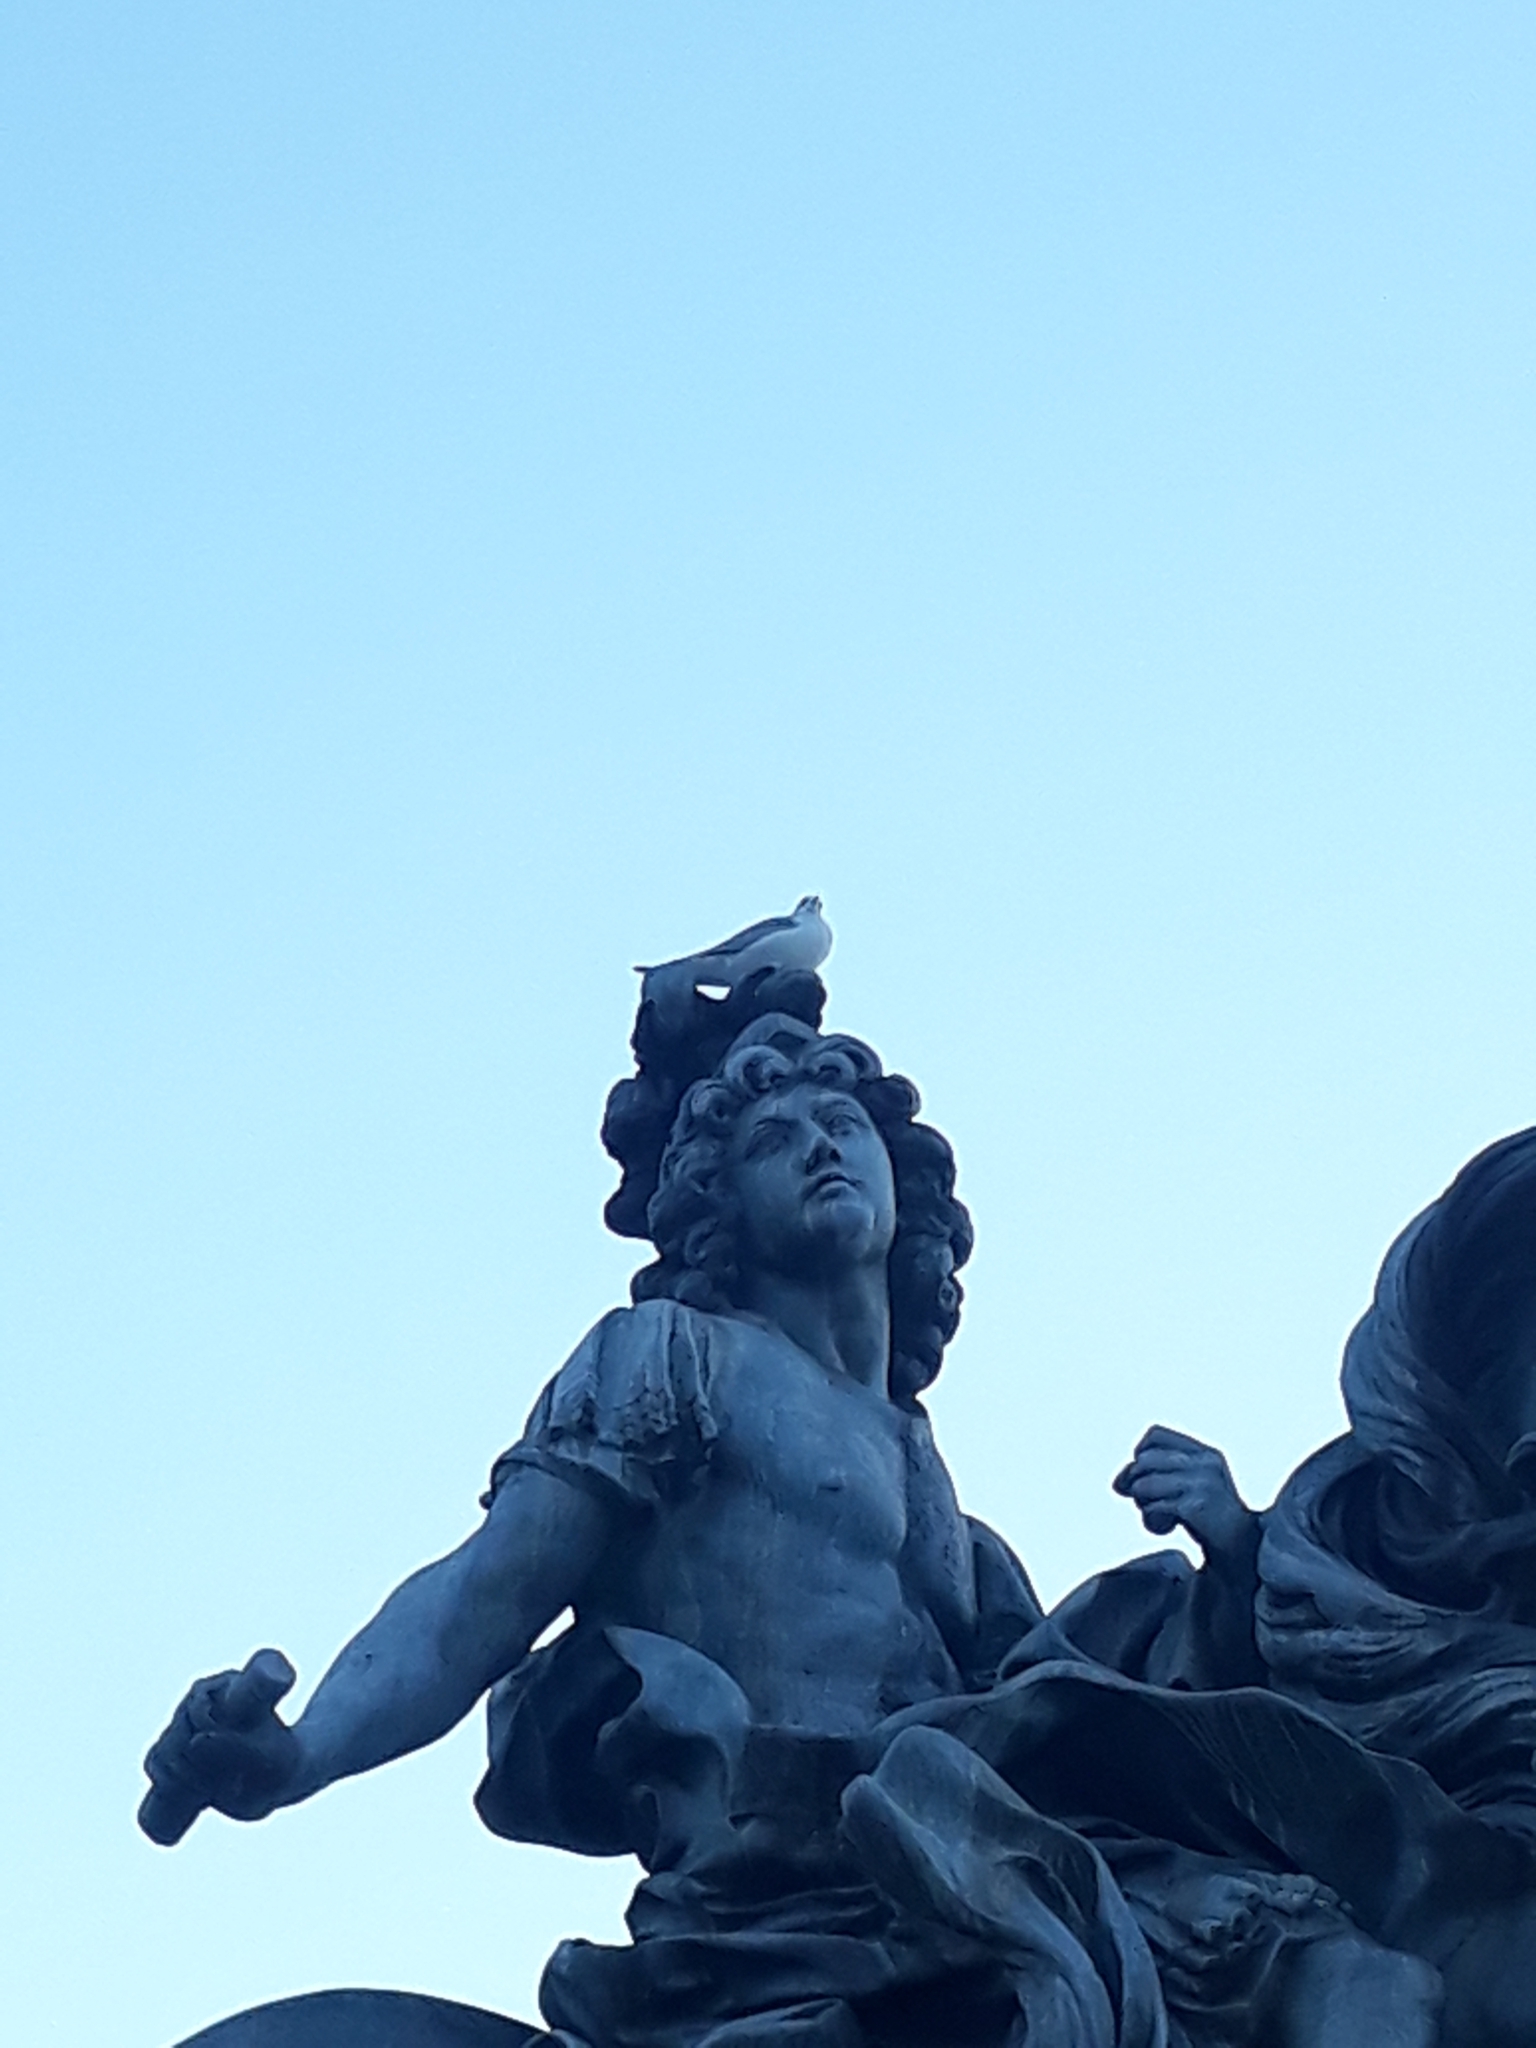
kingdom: Animalia
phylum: Chordata
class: Aves
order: Charadriiformes
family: Laridae
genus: Chroicocephalus
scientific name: Chroicocephalus ridibundus
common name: Black-headed gull
